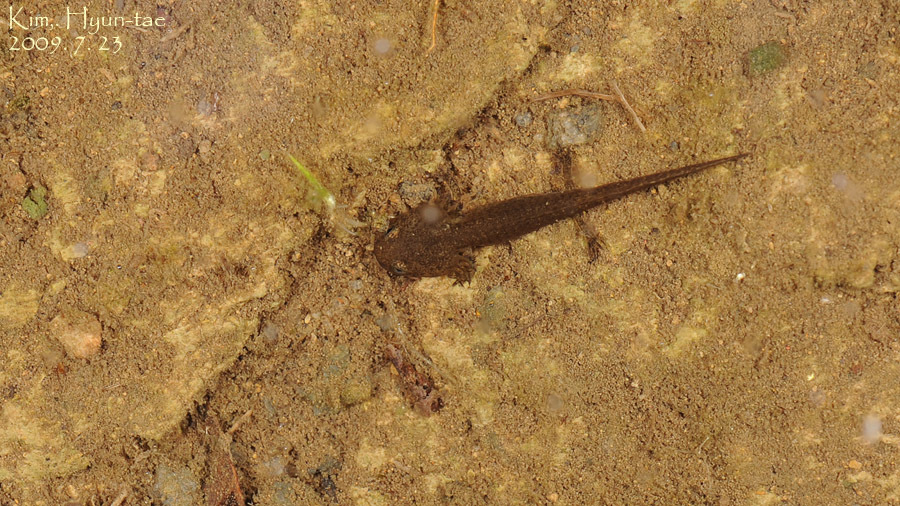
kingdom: Animalia
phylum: Chordata
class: Amphibia
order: Caudata
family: Hynobiidae
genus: Hynobius
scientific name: Hynobius quelpaertensis
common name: Cheju salamander
